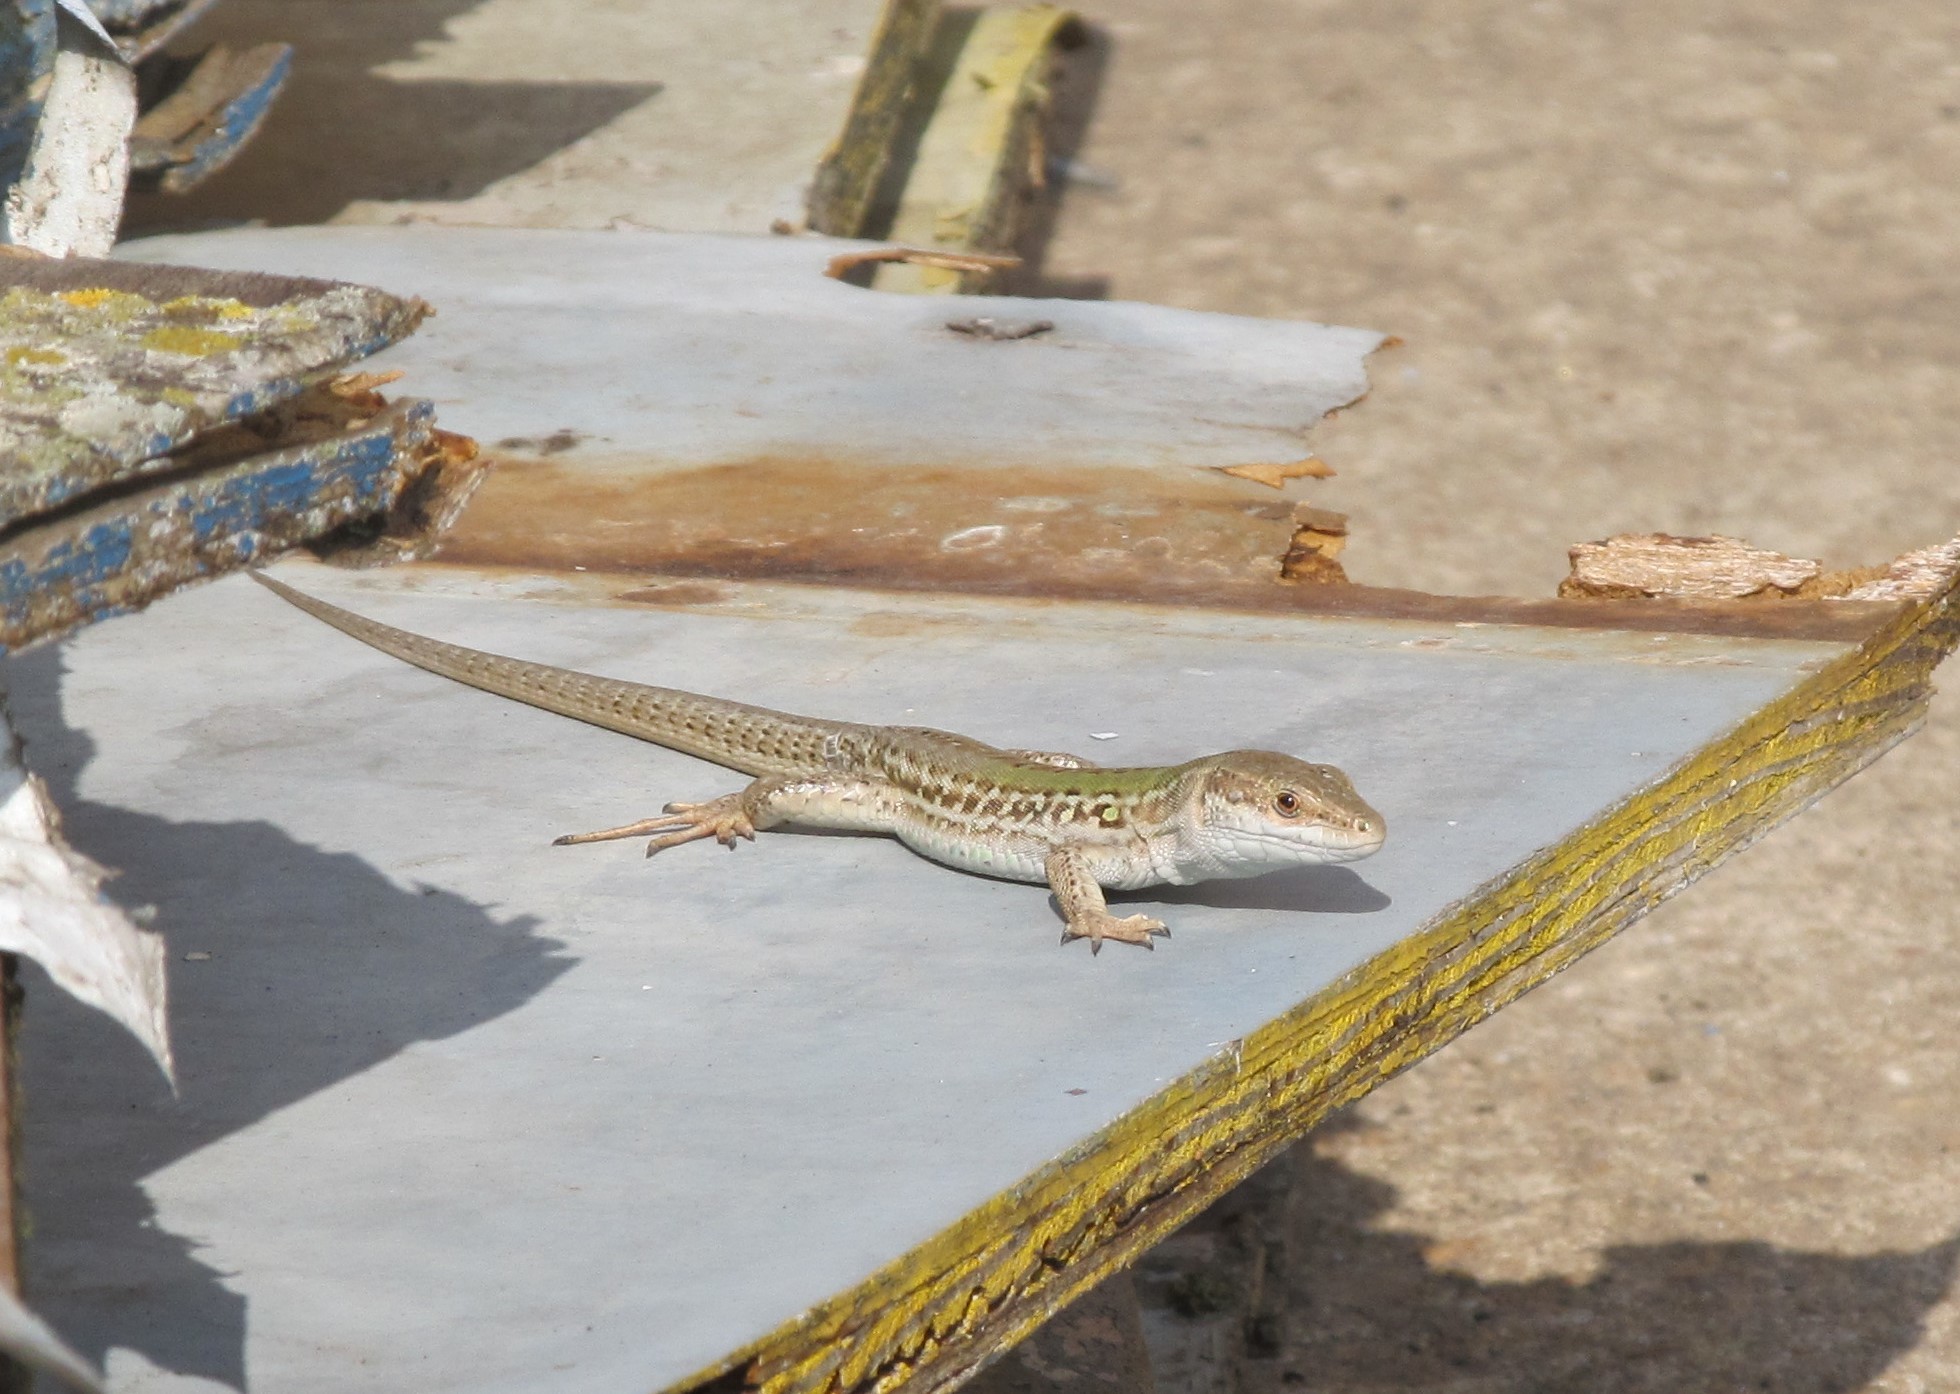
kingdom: Animalia
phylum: Chordata
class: Squamata
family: Lacertidae
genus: Podarcis
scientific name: Podarcis siculus
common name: Italian wall lizard
